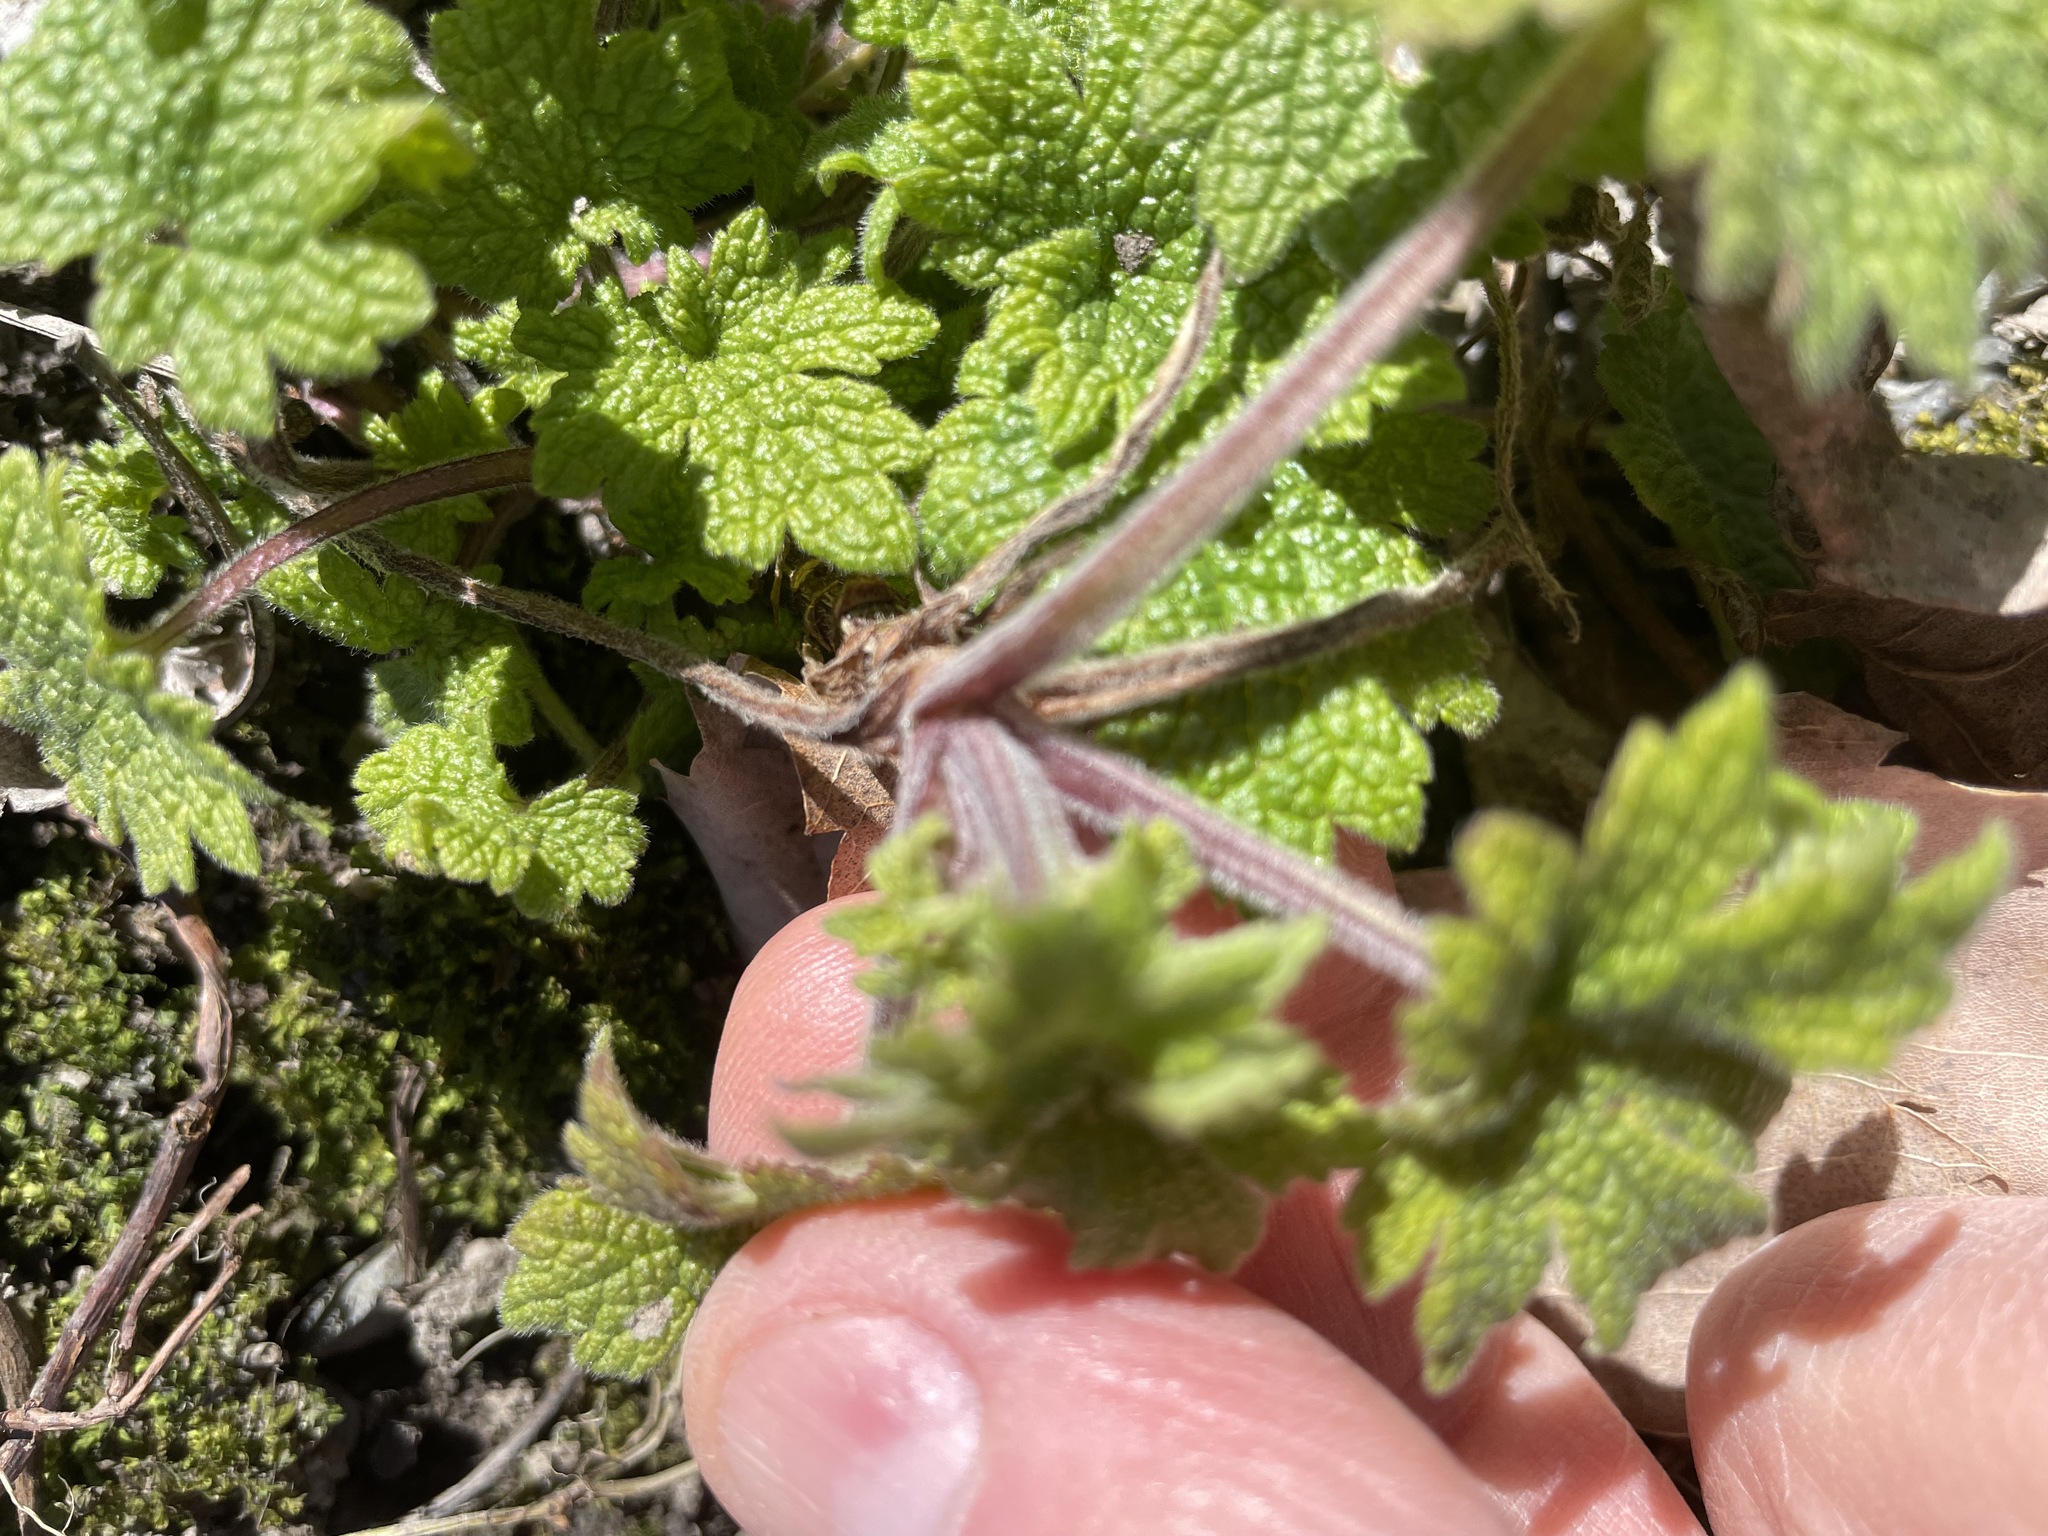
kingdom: Plantae
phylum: Tracheophyta
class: Magnoliopsida
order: Lamiales
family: Lamiaceae
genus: Leonurus
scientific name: Leonurus cardiaca
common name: Motherwort
